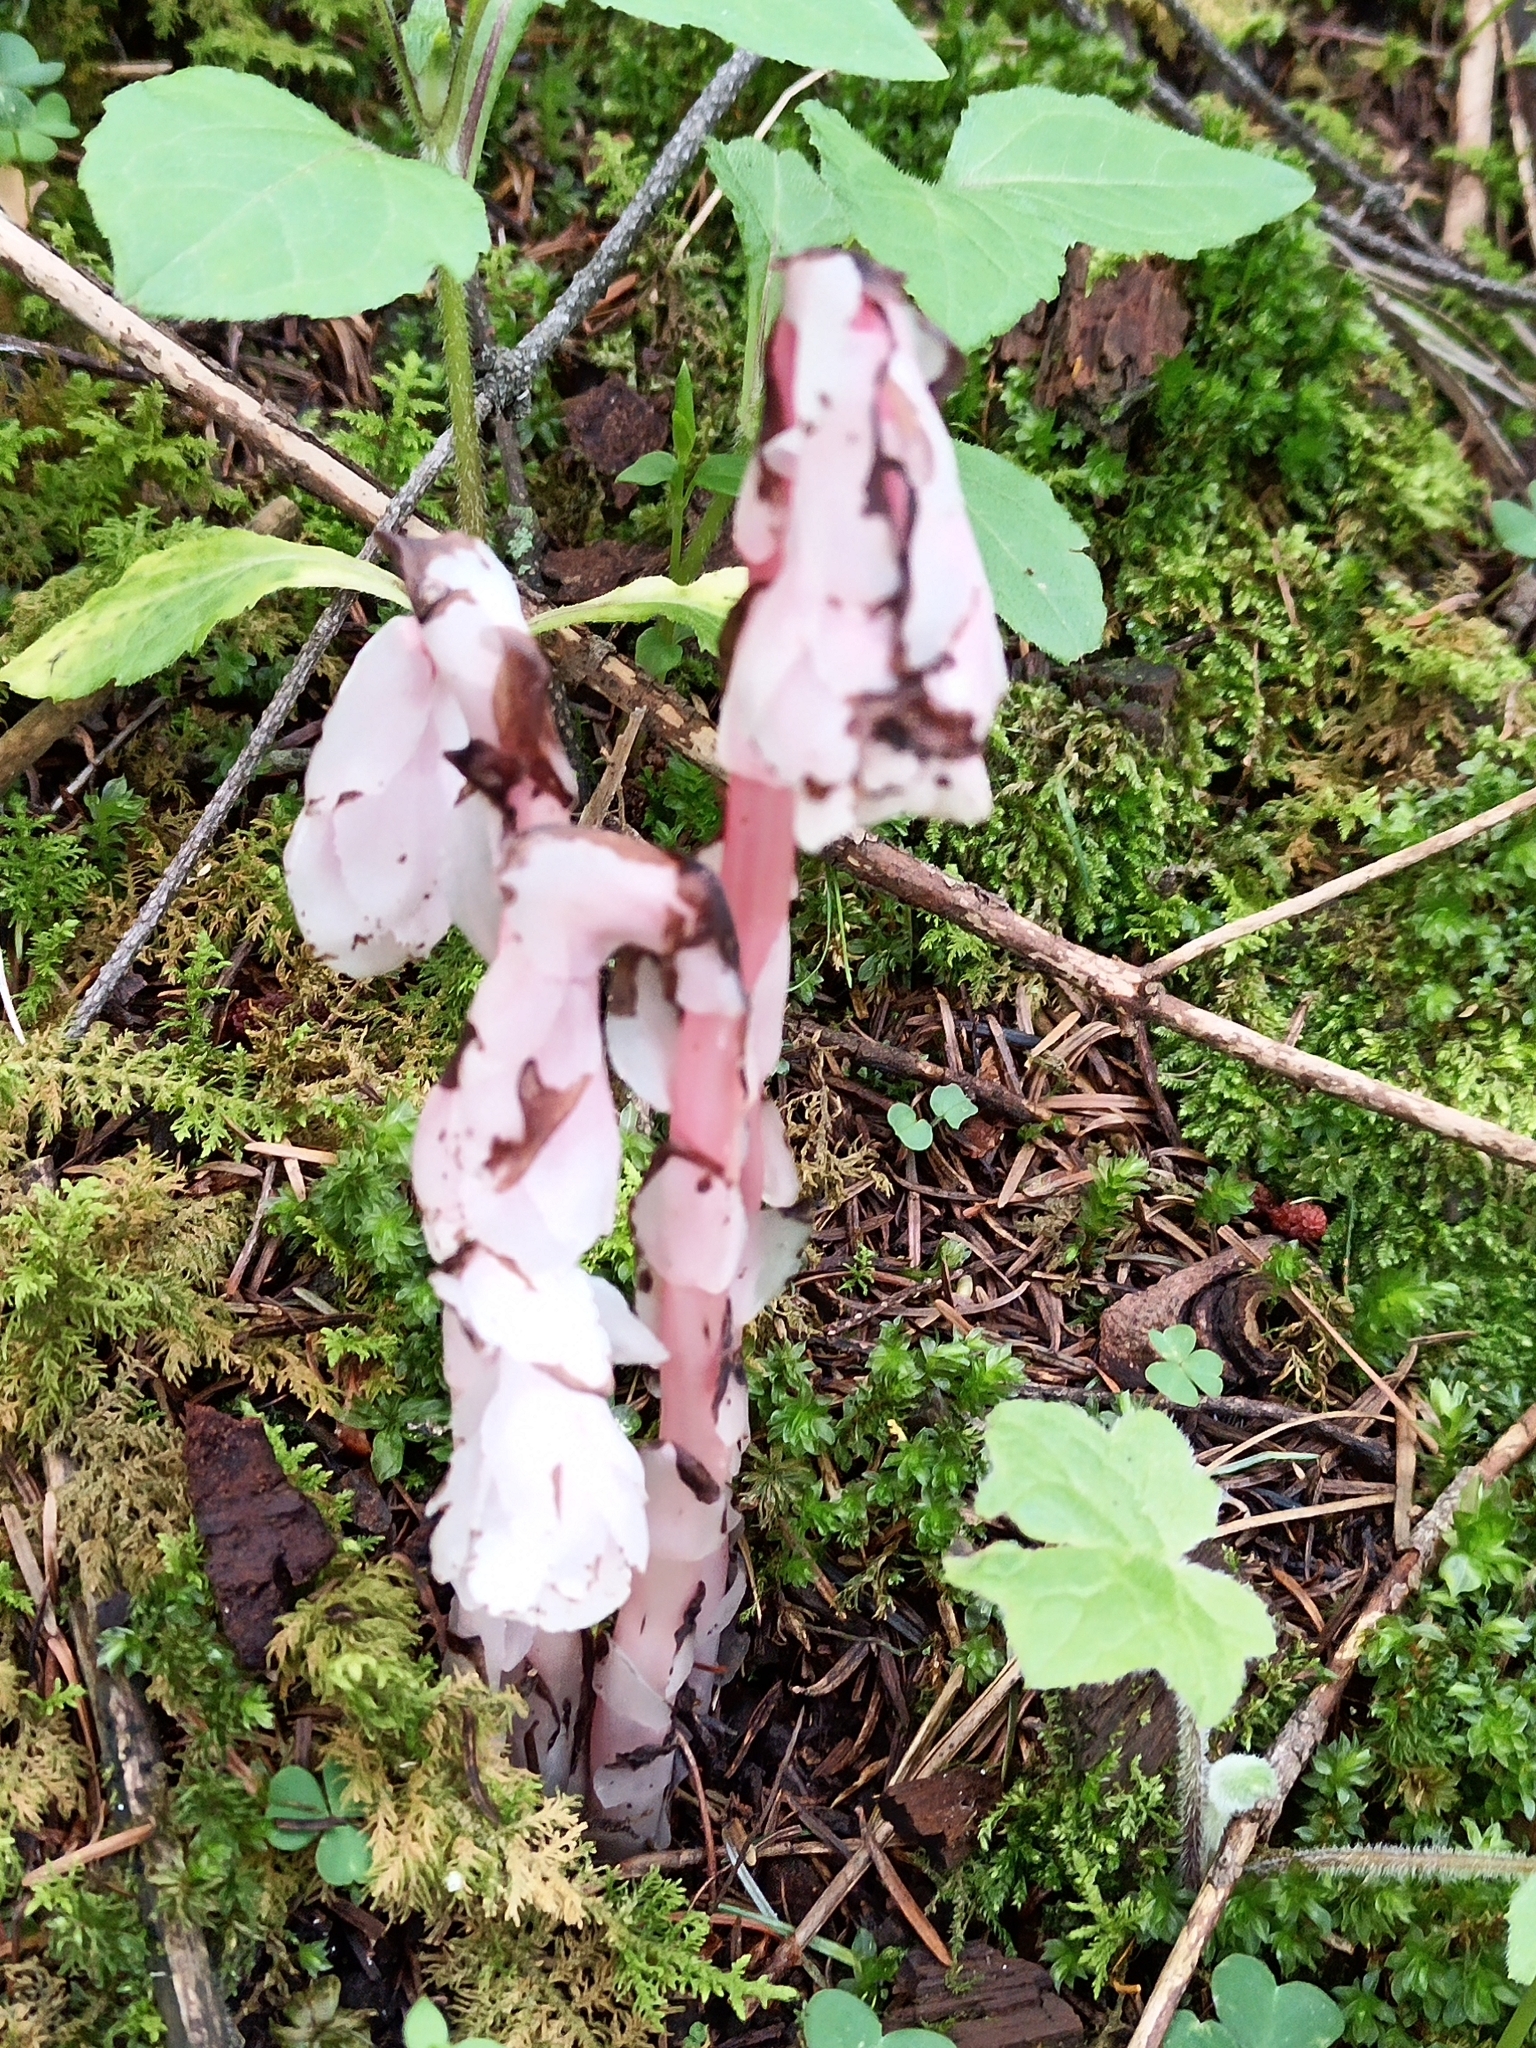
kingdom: Plantae
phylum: Tracheophyta
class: Magnoliopsida
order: Ericales
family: Ericaceae
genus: Monotropa
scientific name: Monotropa uniflora
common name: Convulsion root
